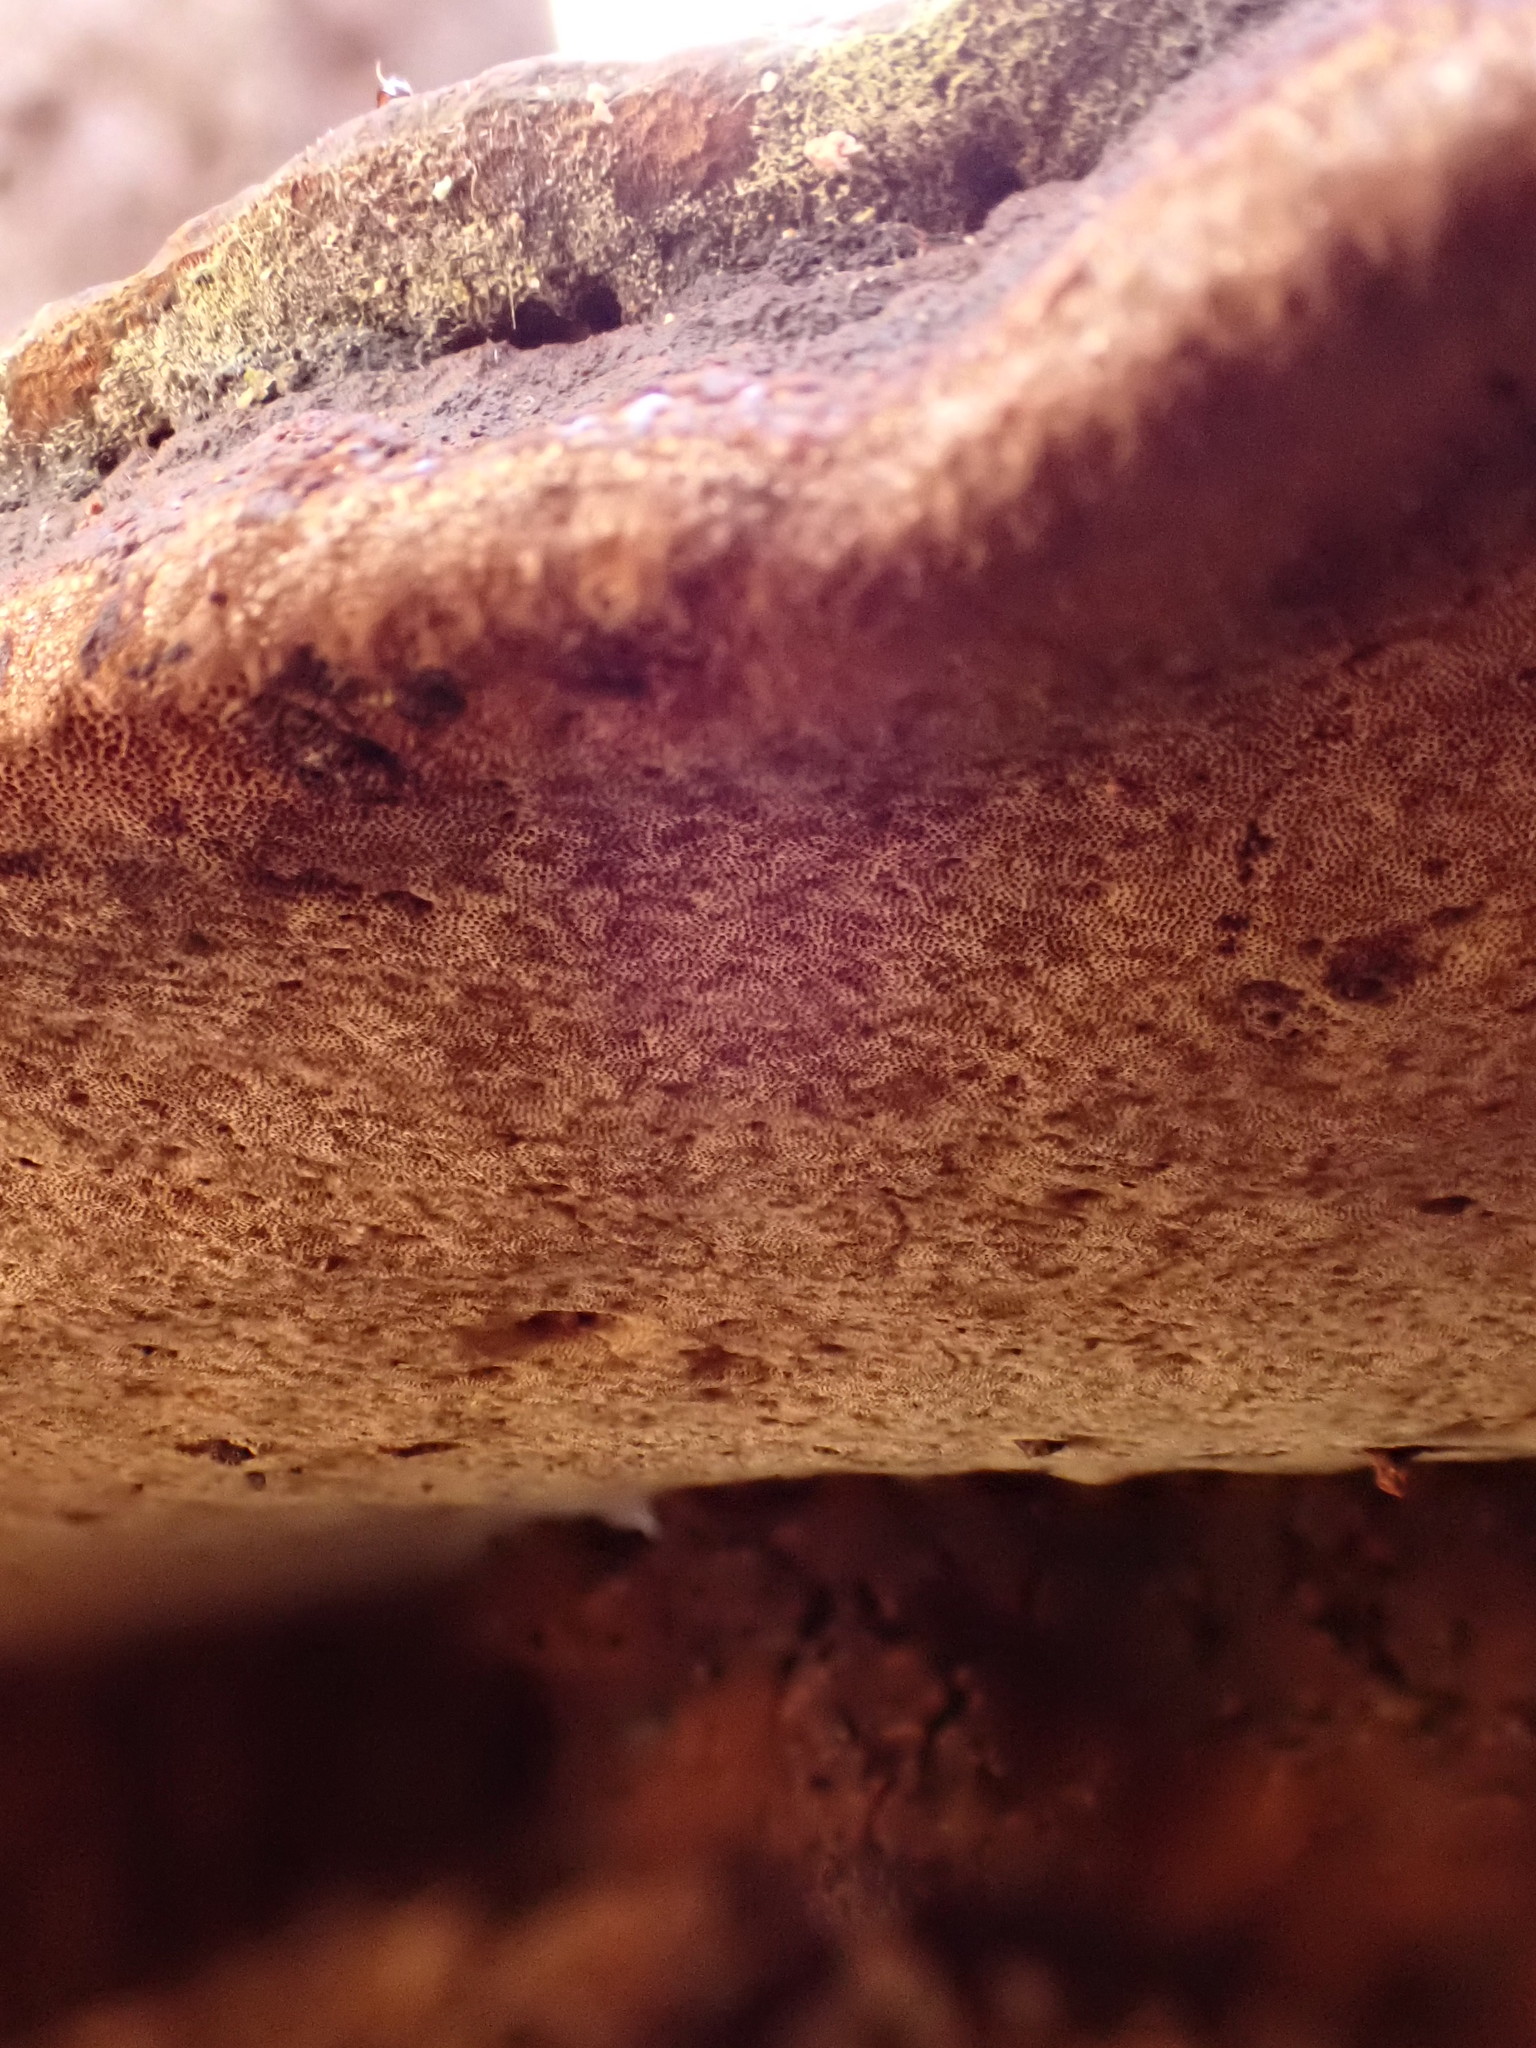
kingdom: Fungi
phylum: Basidiomycota
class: Agaricomycetes
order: Hymenochaetales
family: Hymenochaetaceae
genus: Phellinus
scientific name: Phellinus robiniae
